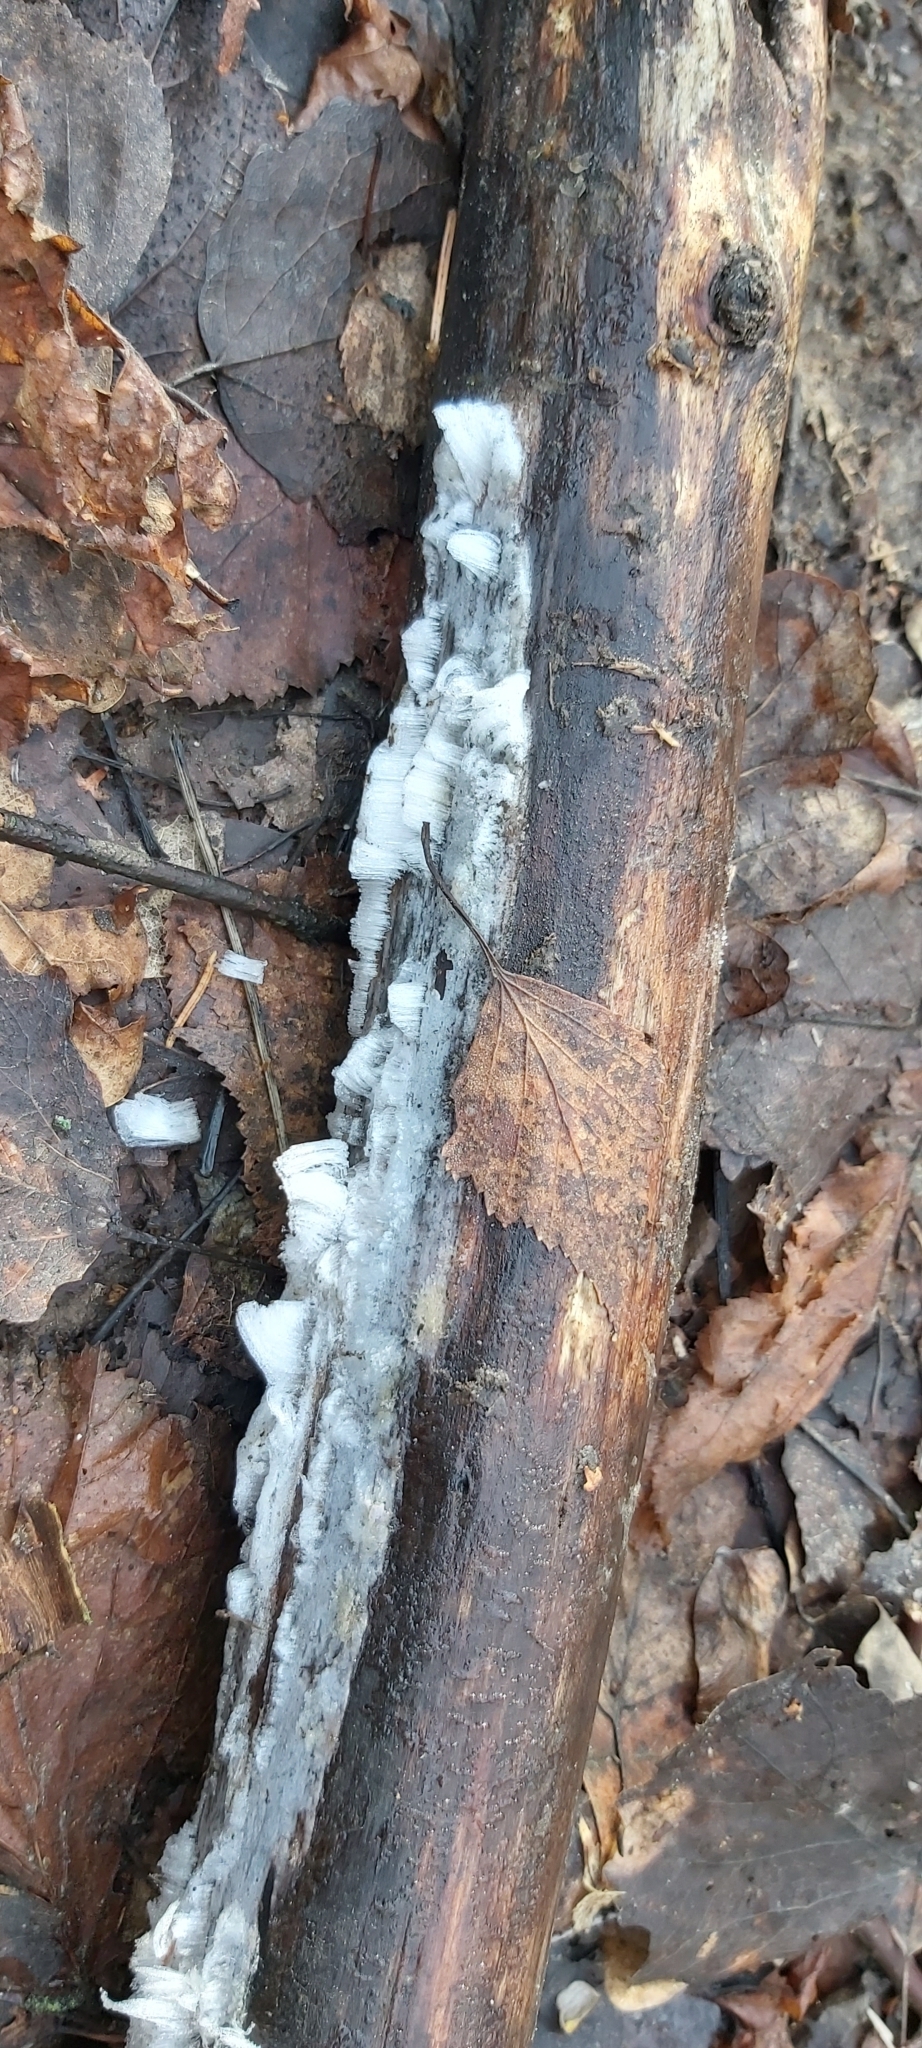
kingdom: Fungi
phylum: Basidiomycota
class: Agaricomycetes
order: Auriculariales
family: Auriculariaceae
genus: Exidiopsis
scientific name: Exidiopsis effusa
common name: Hair ice crust
